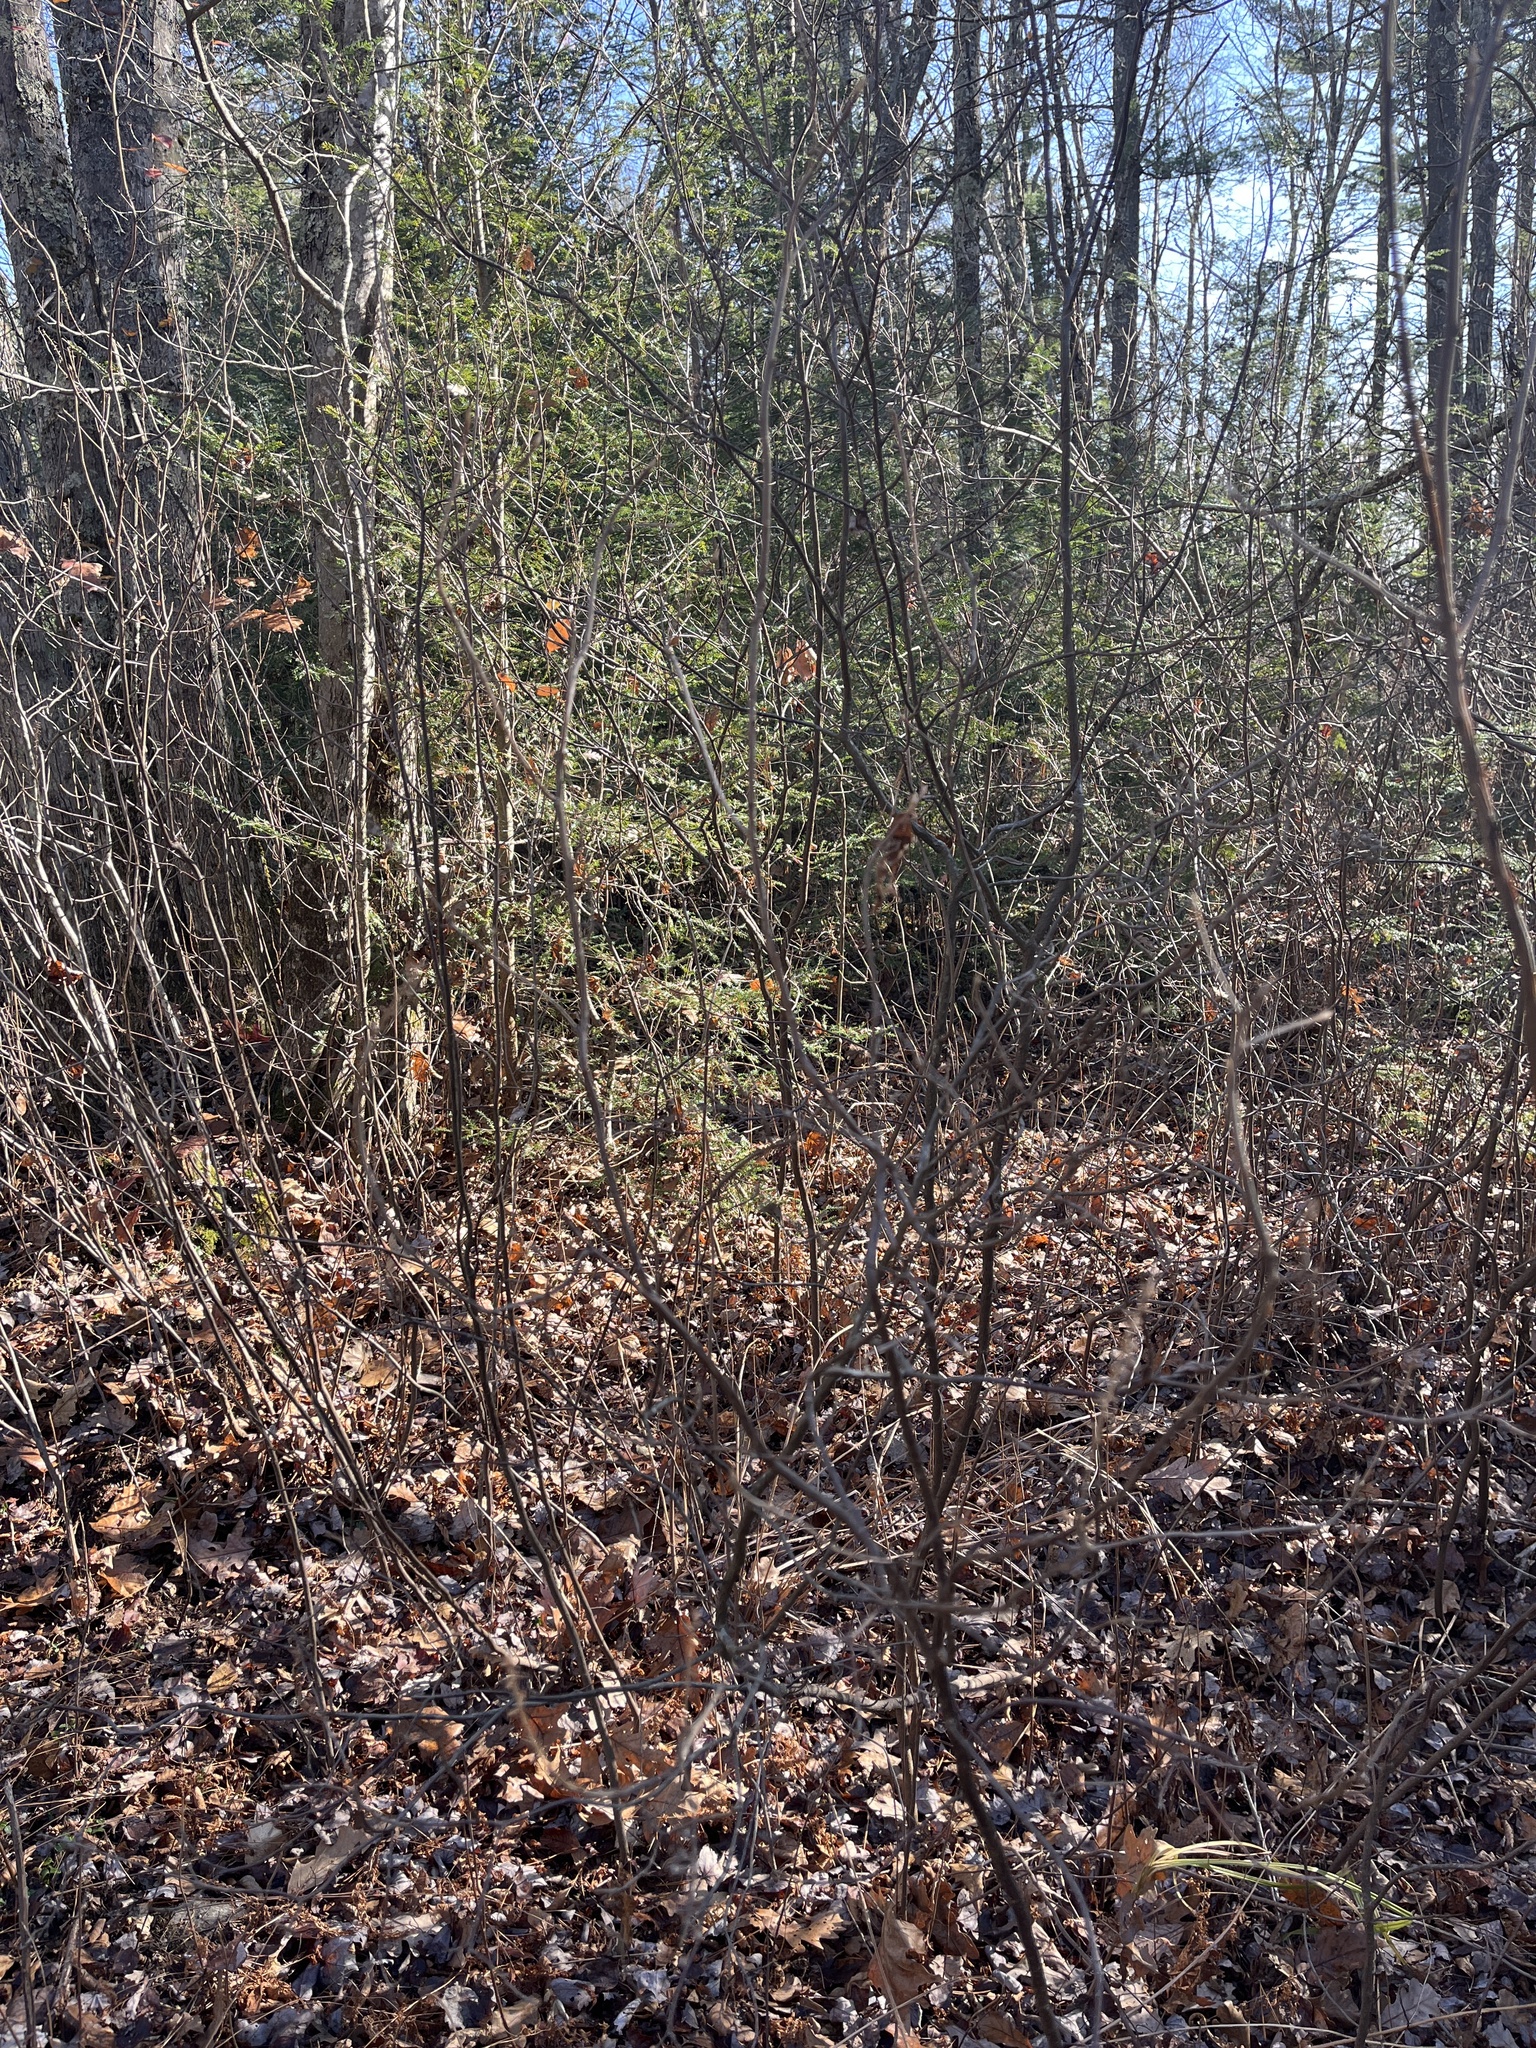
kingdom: Plantae
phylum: Tracheophyta
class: Magnoliopsida
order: Ericales
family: Clethraceae
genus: Clethra
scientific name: Clethra alnifolia
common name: Sweet pepperbush
